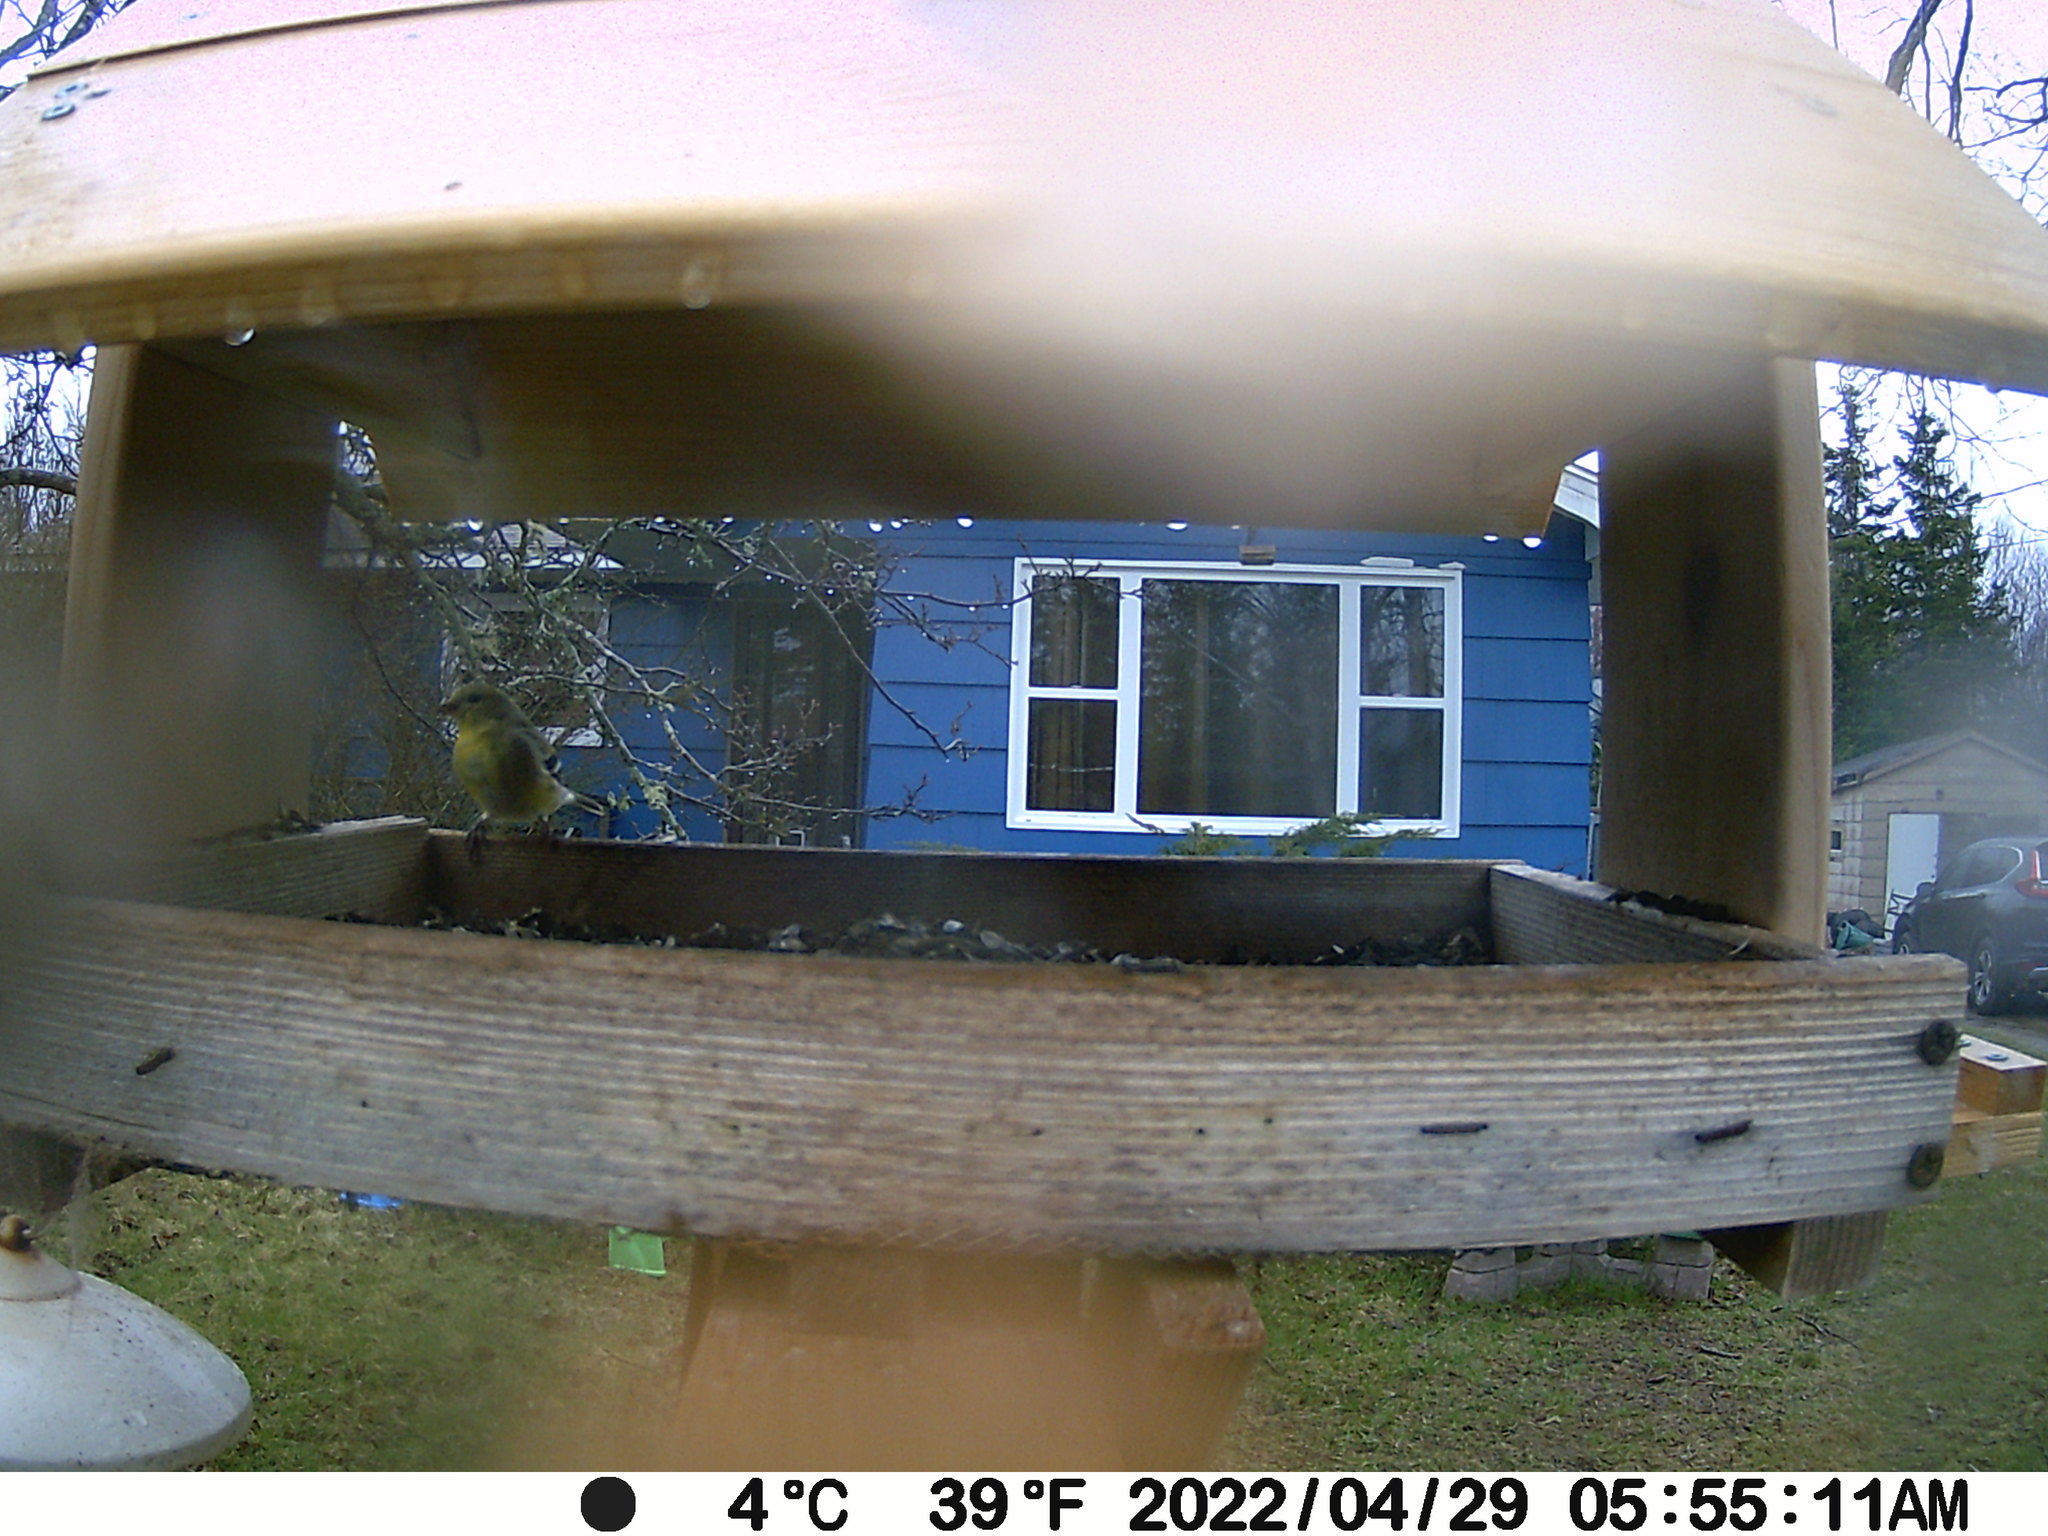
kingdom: Animalia
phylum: Chordata
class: Aves
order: Passeriformes
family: Fringillidae
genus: Spinus
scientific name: Spinus tristis
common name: American goldfinch
